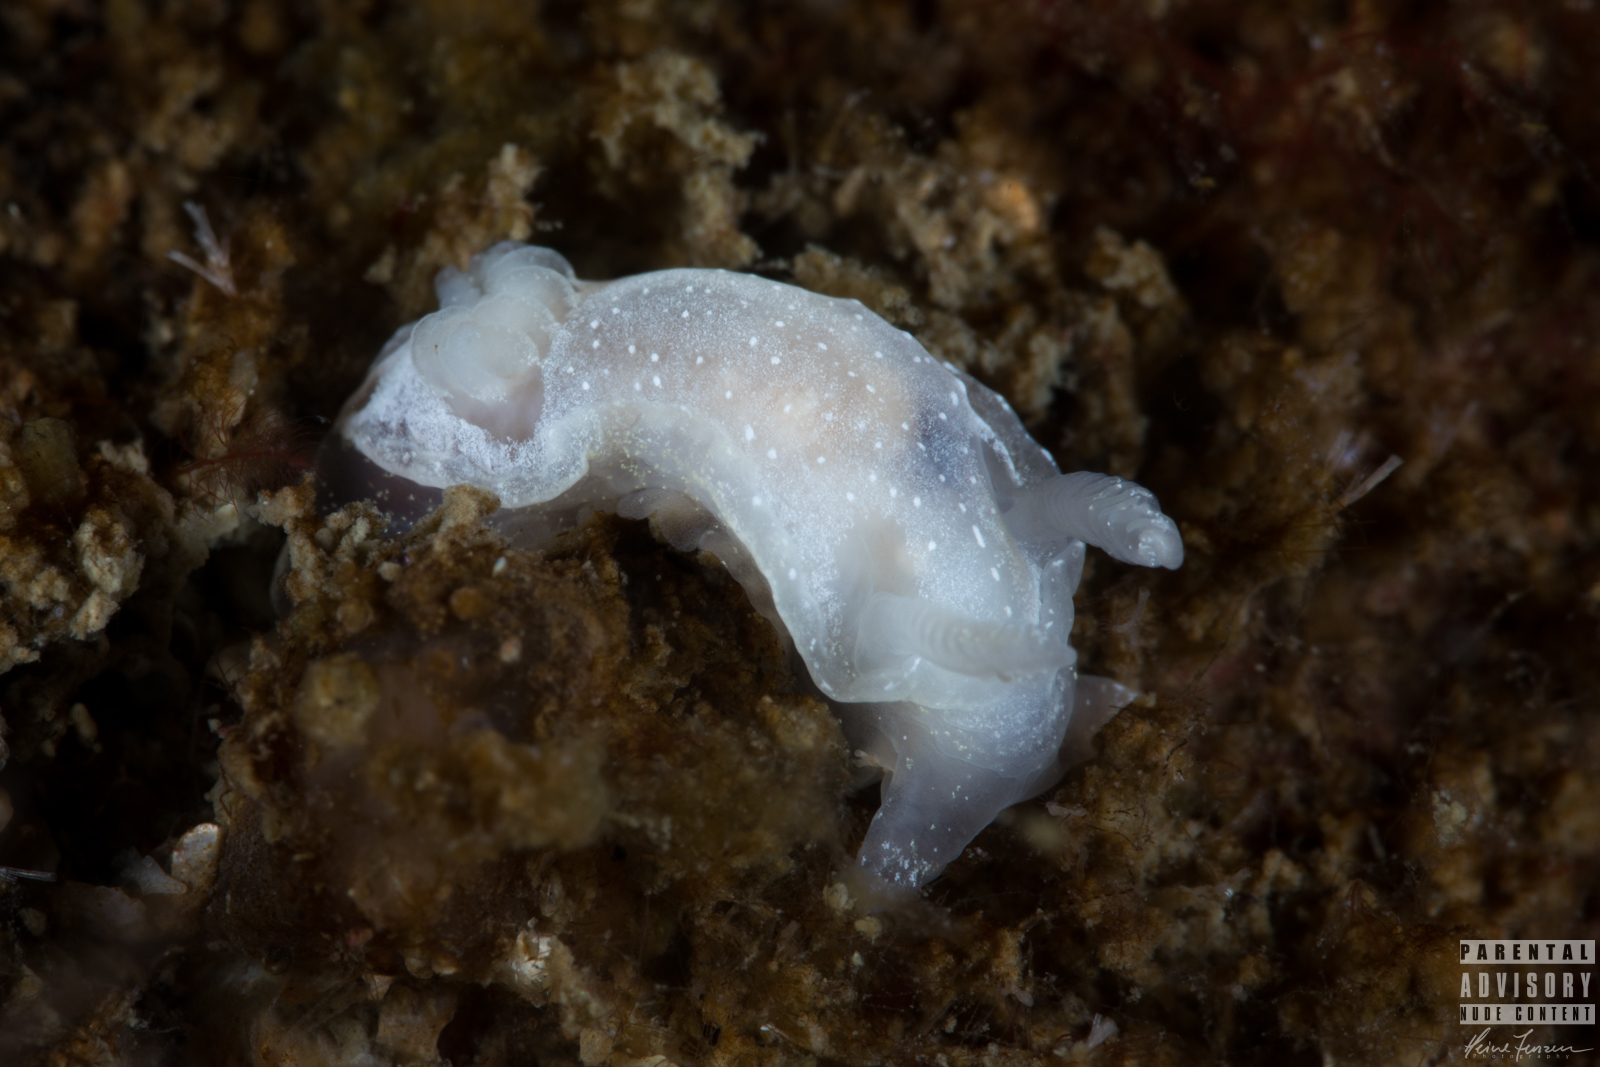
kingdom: Animalia
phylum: Mollusca
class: Gastropoda
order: Nudibranchia
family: Goniodorididae
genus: Okenia
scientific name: Okenia
